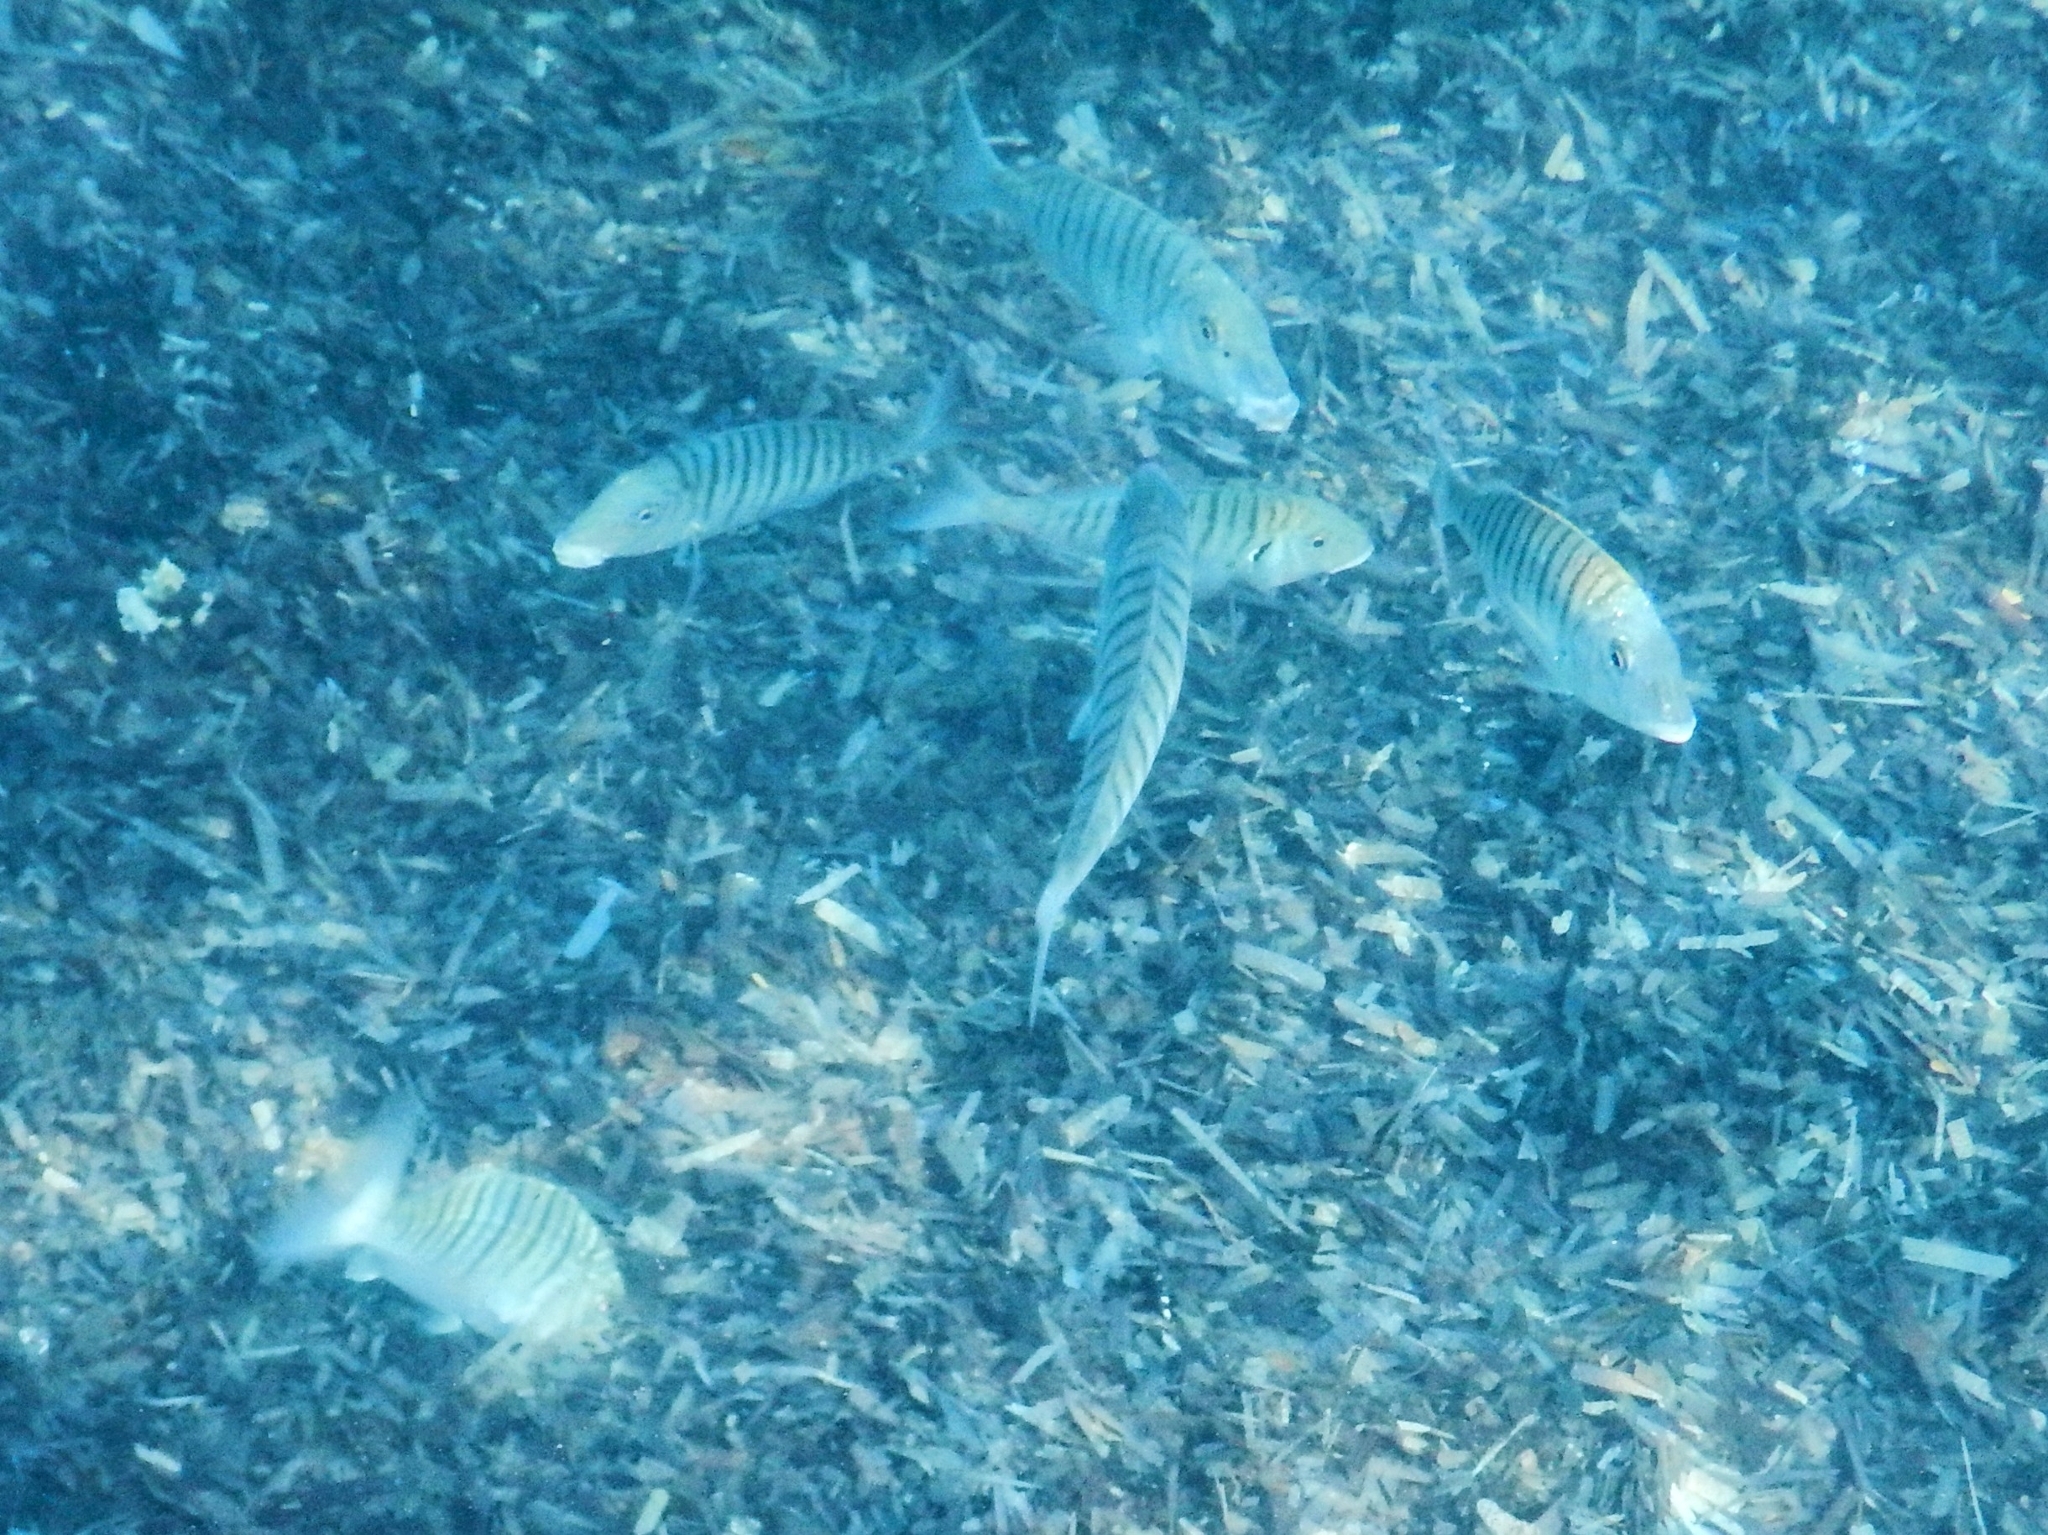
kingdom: Animalia
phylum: Chordata
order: Perciformes
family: Sparidae
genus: Lithognathus
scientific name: Lithognathus mormyrus
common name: Sand steenbras
